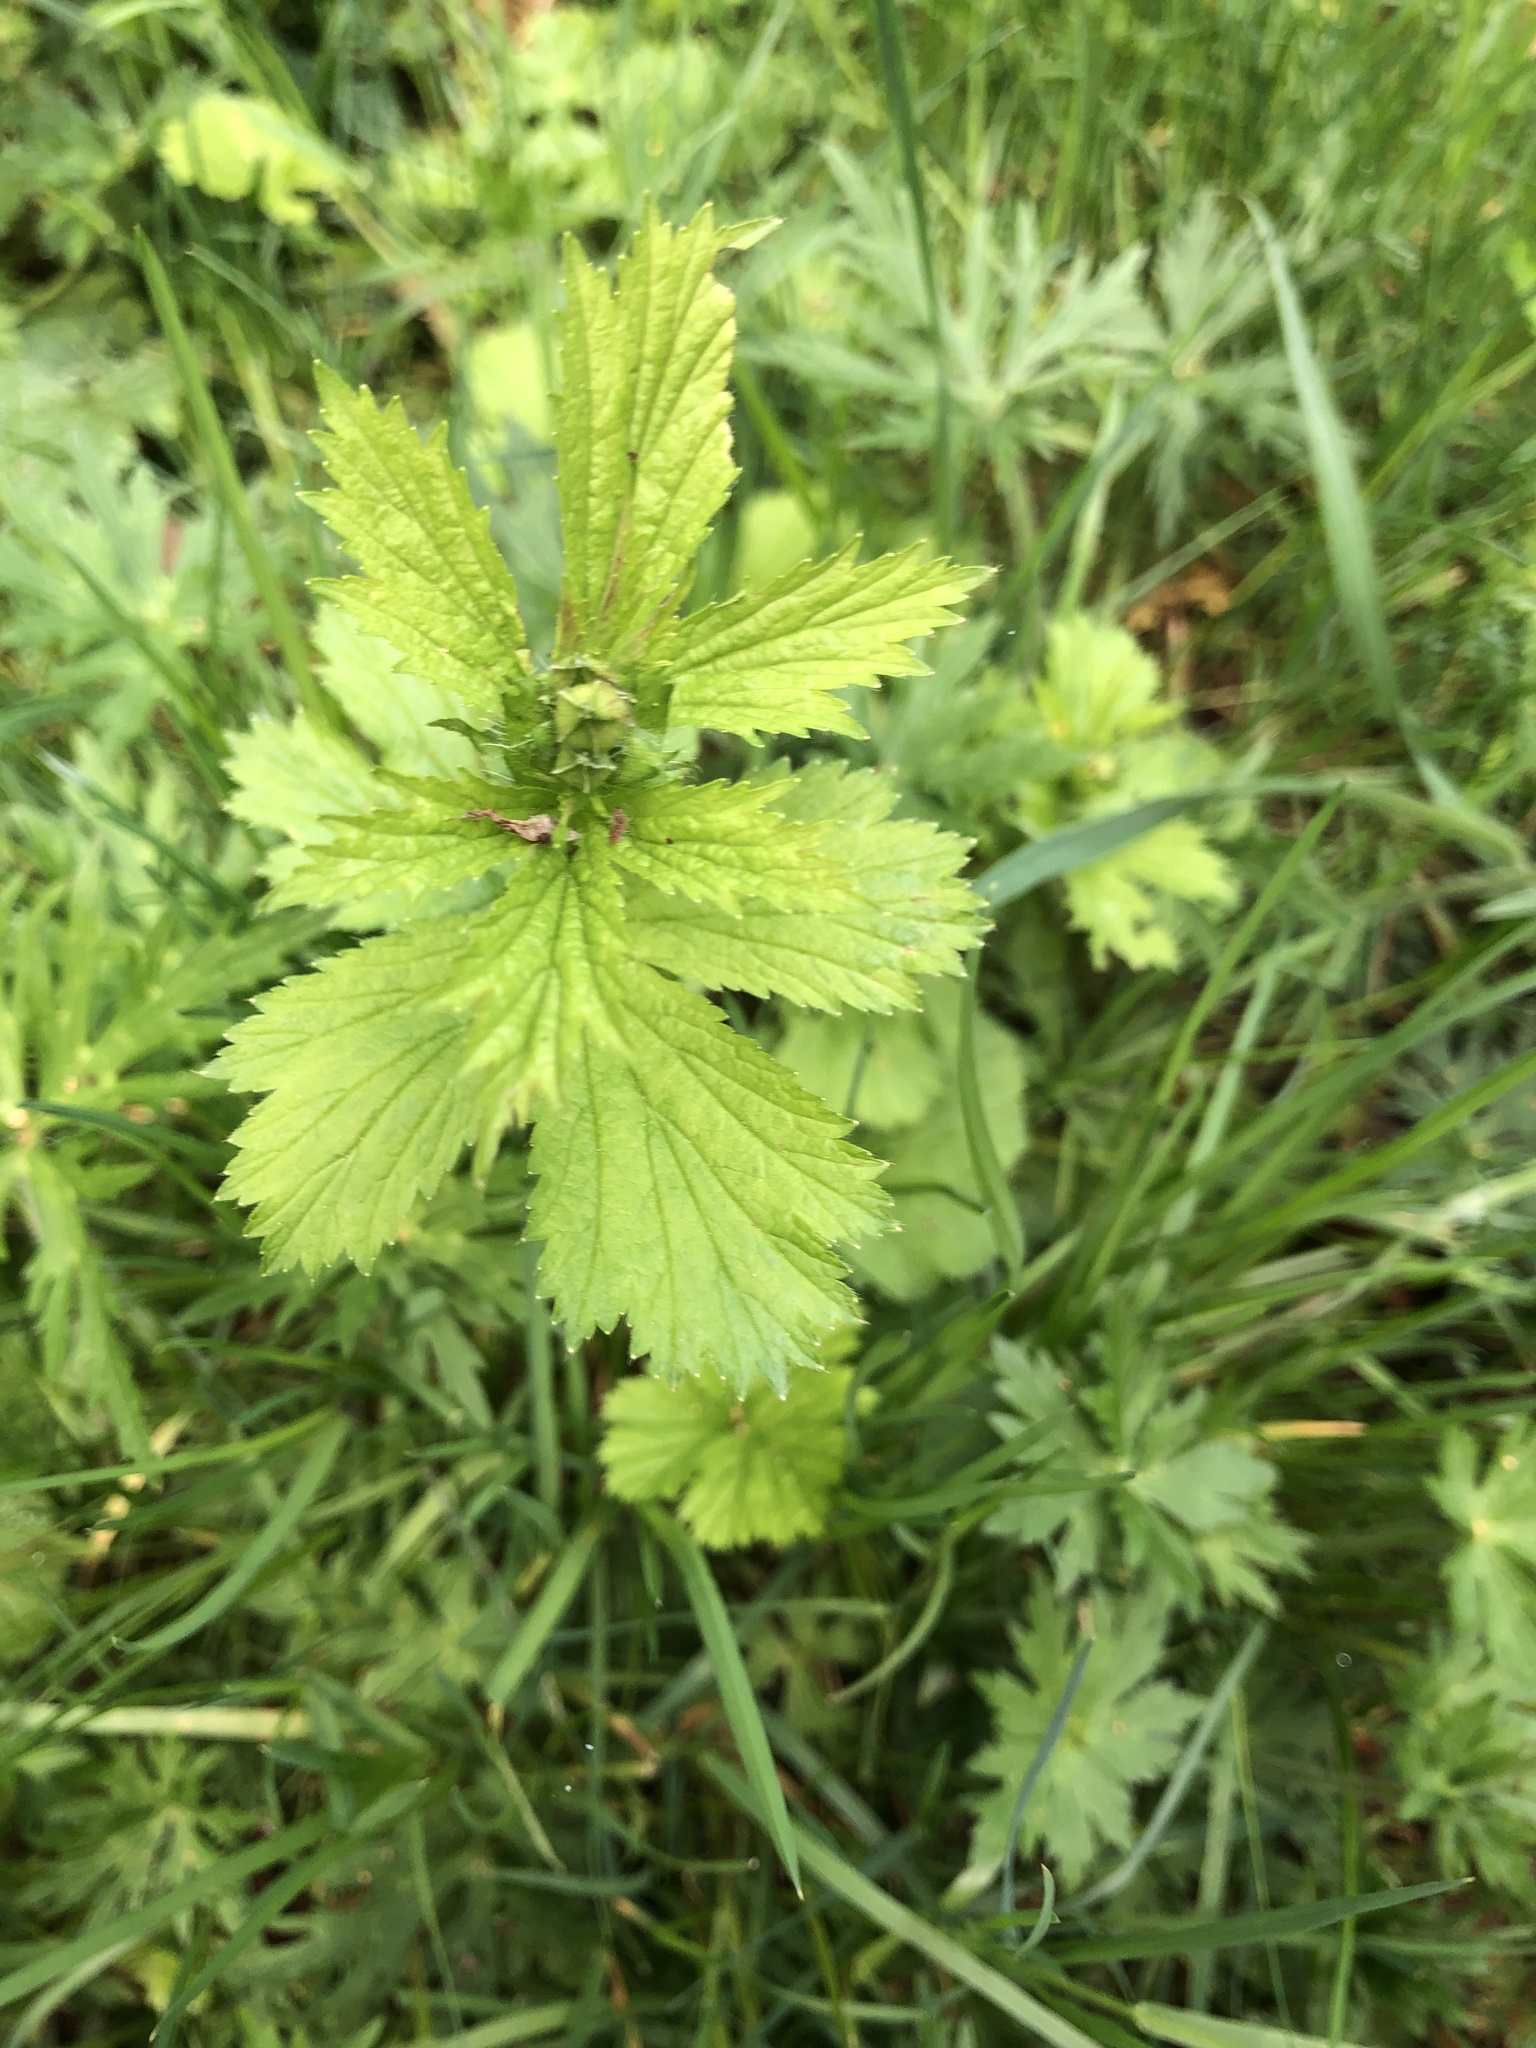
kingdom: Plantae
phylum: Tracheophyta
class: Magnoliopsida
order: Rosales
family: Rosaceae
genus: Geum
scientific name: Geum macrophyllum
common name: Large-leaved avens
